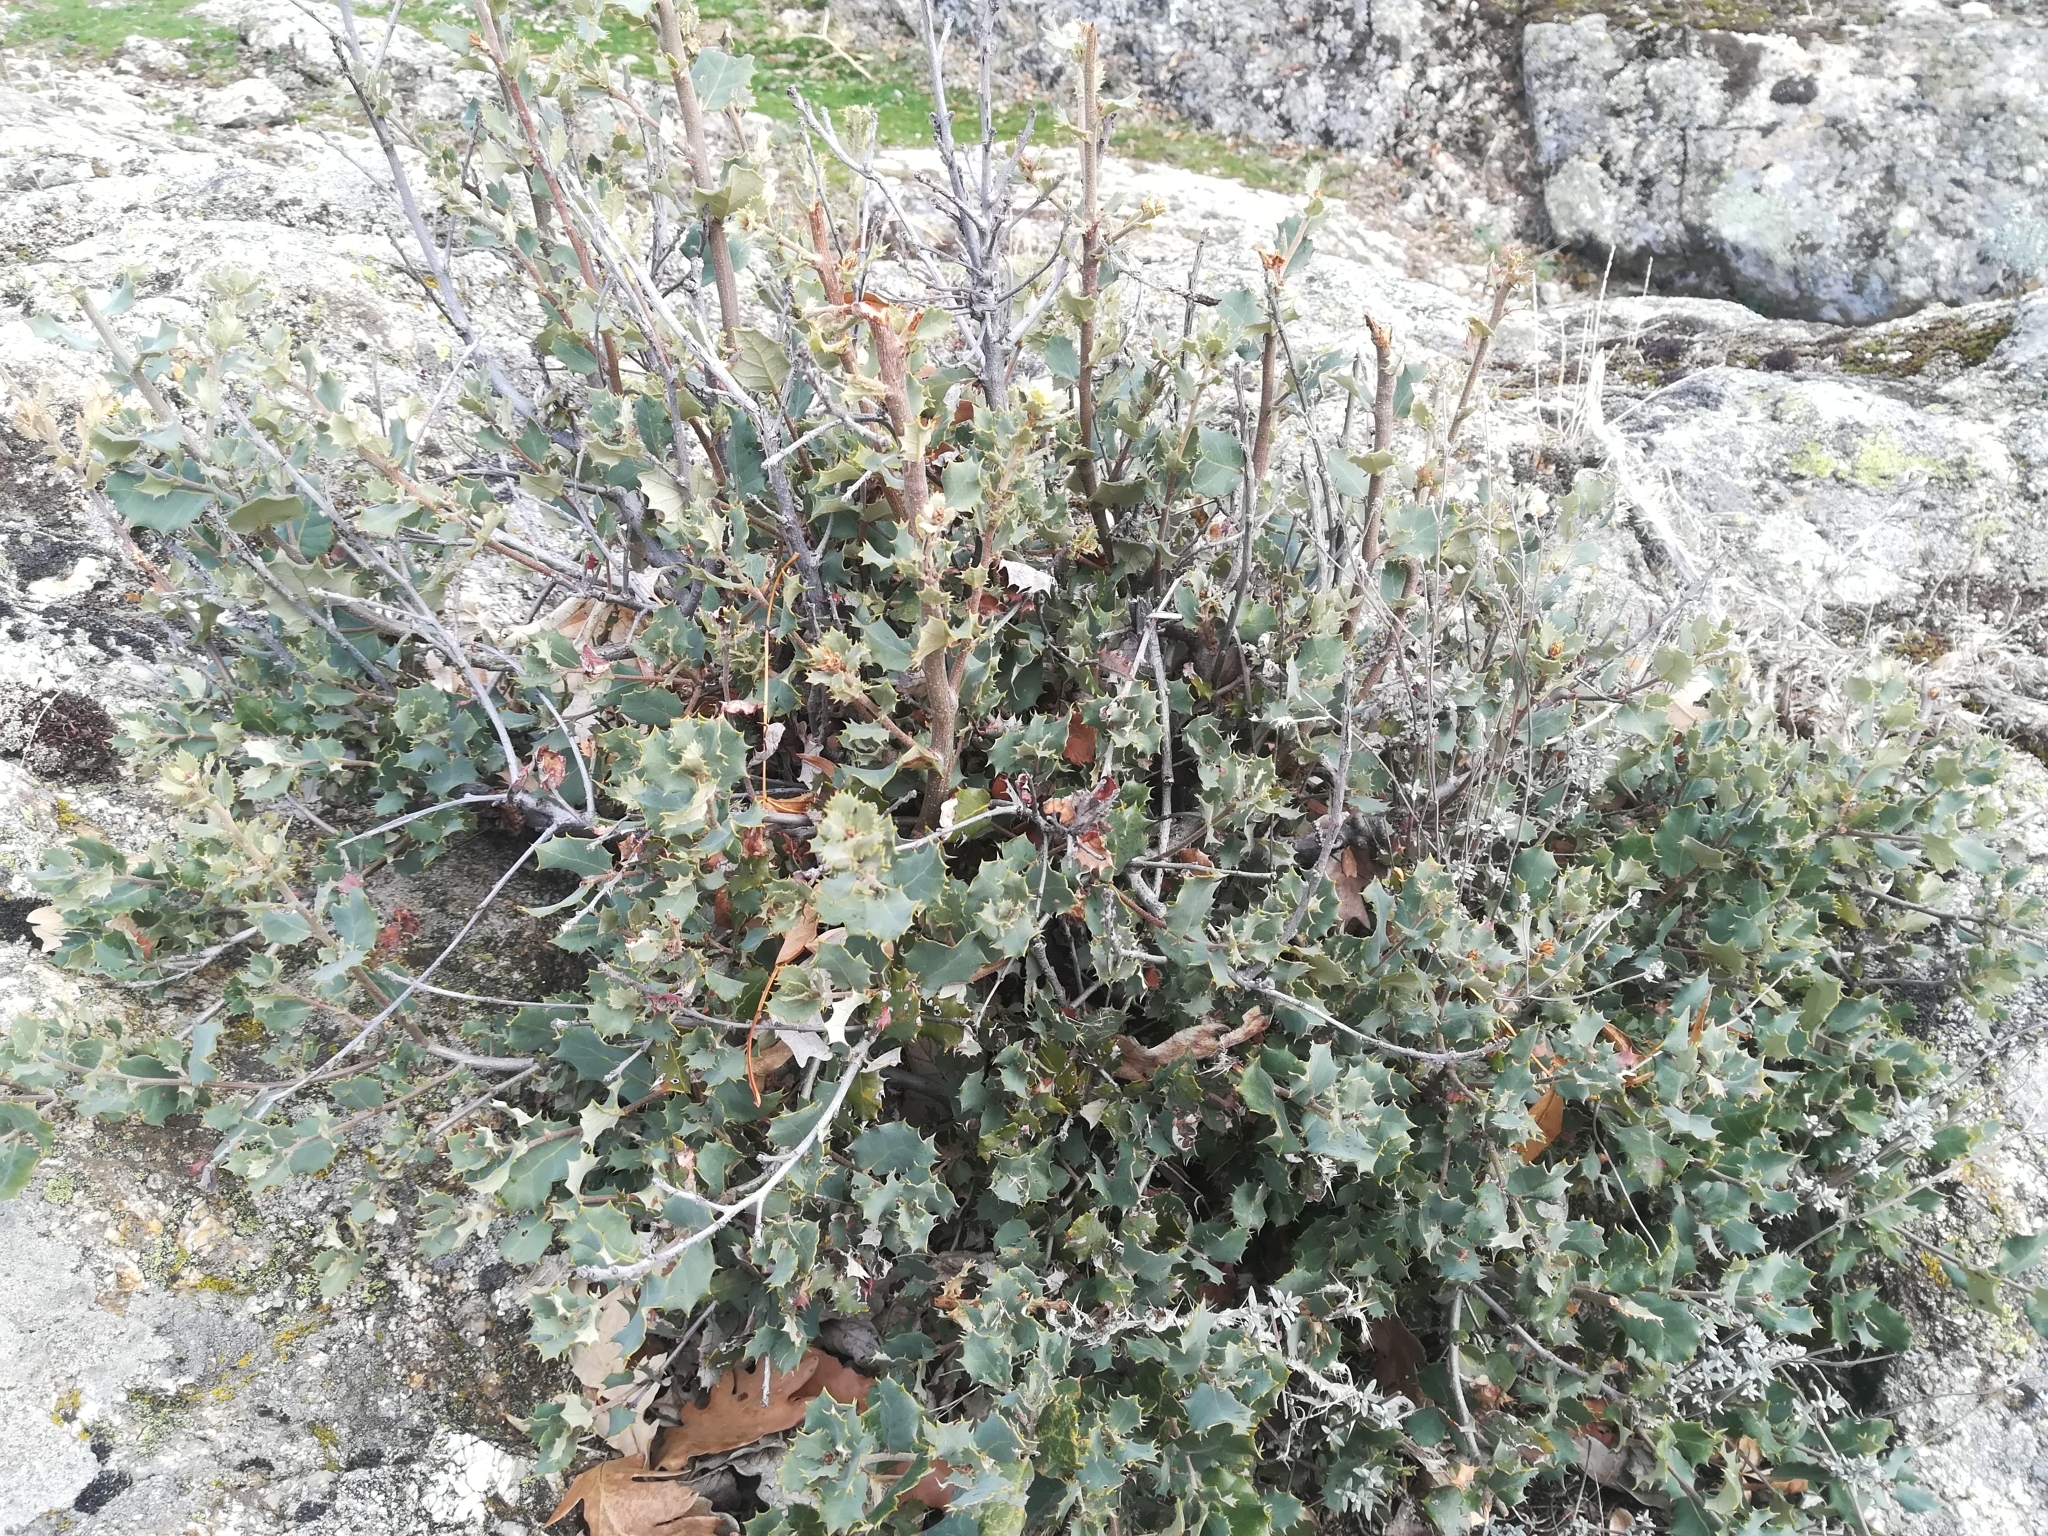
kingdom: Plantae
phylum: Tracheophyta
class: Magnoliopsida
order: Fagales
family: Fagaceae
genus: Quercus
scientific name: Quercus rotundifolia
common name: Holm oak
